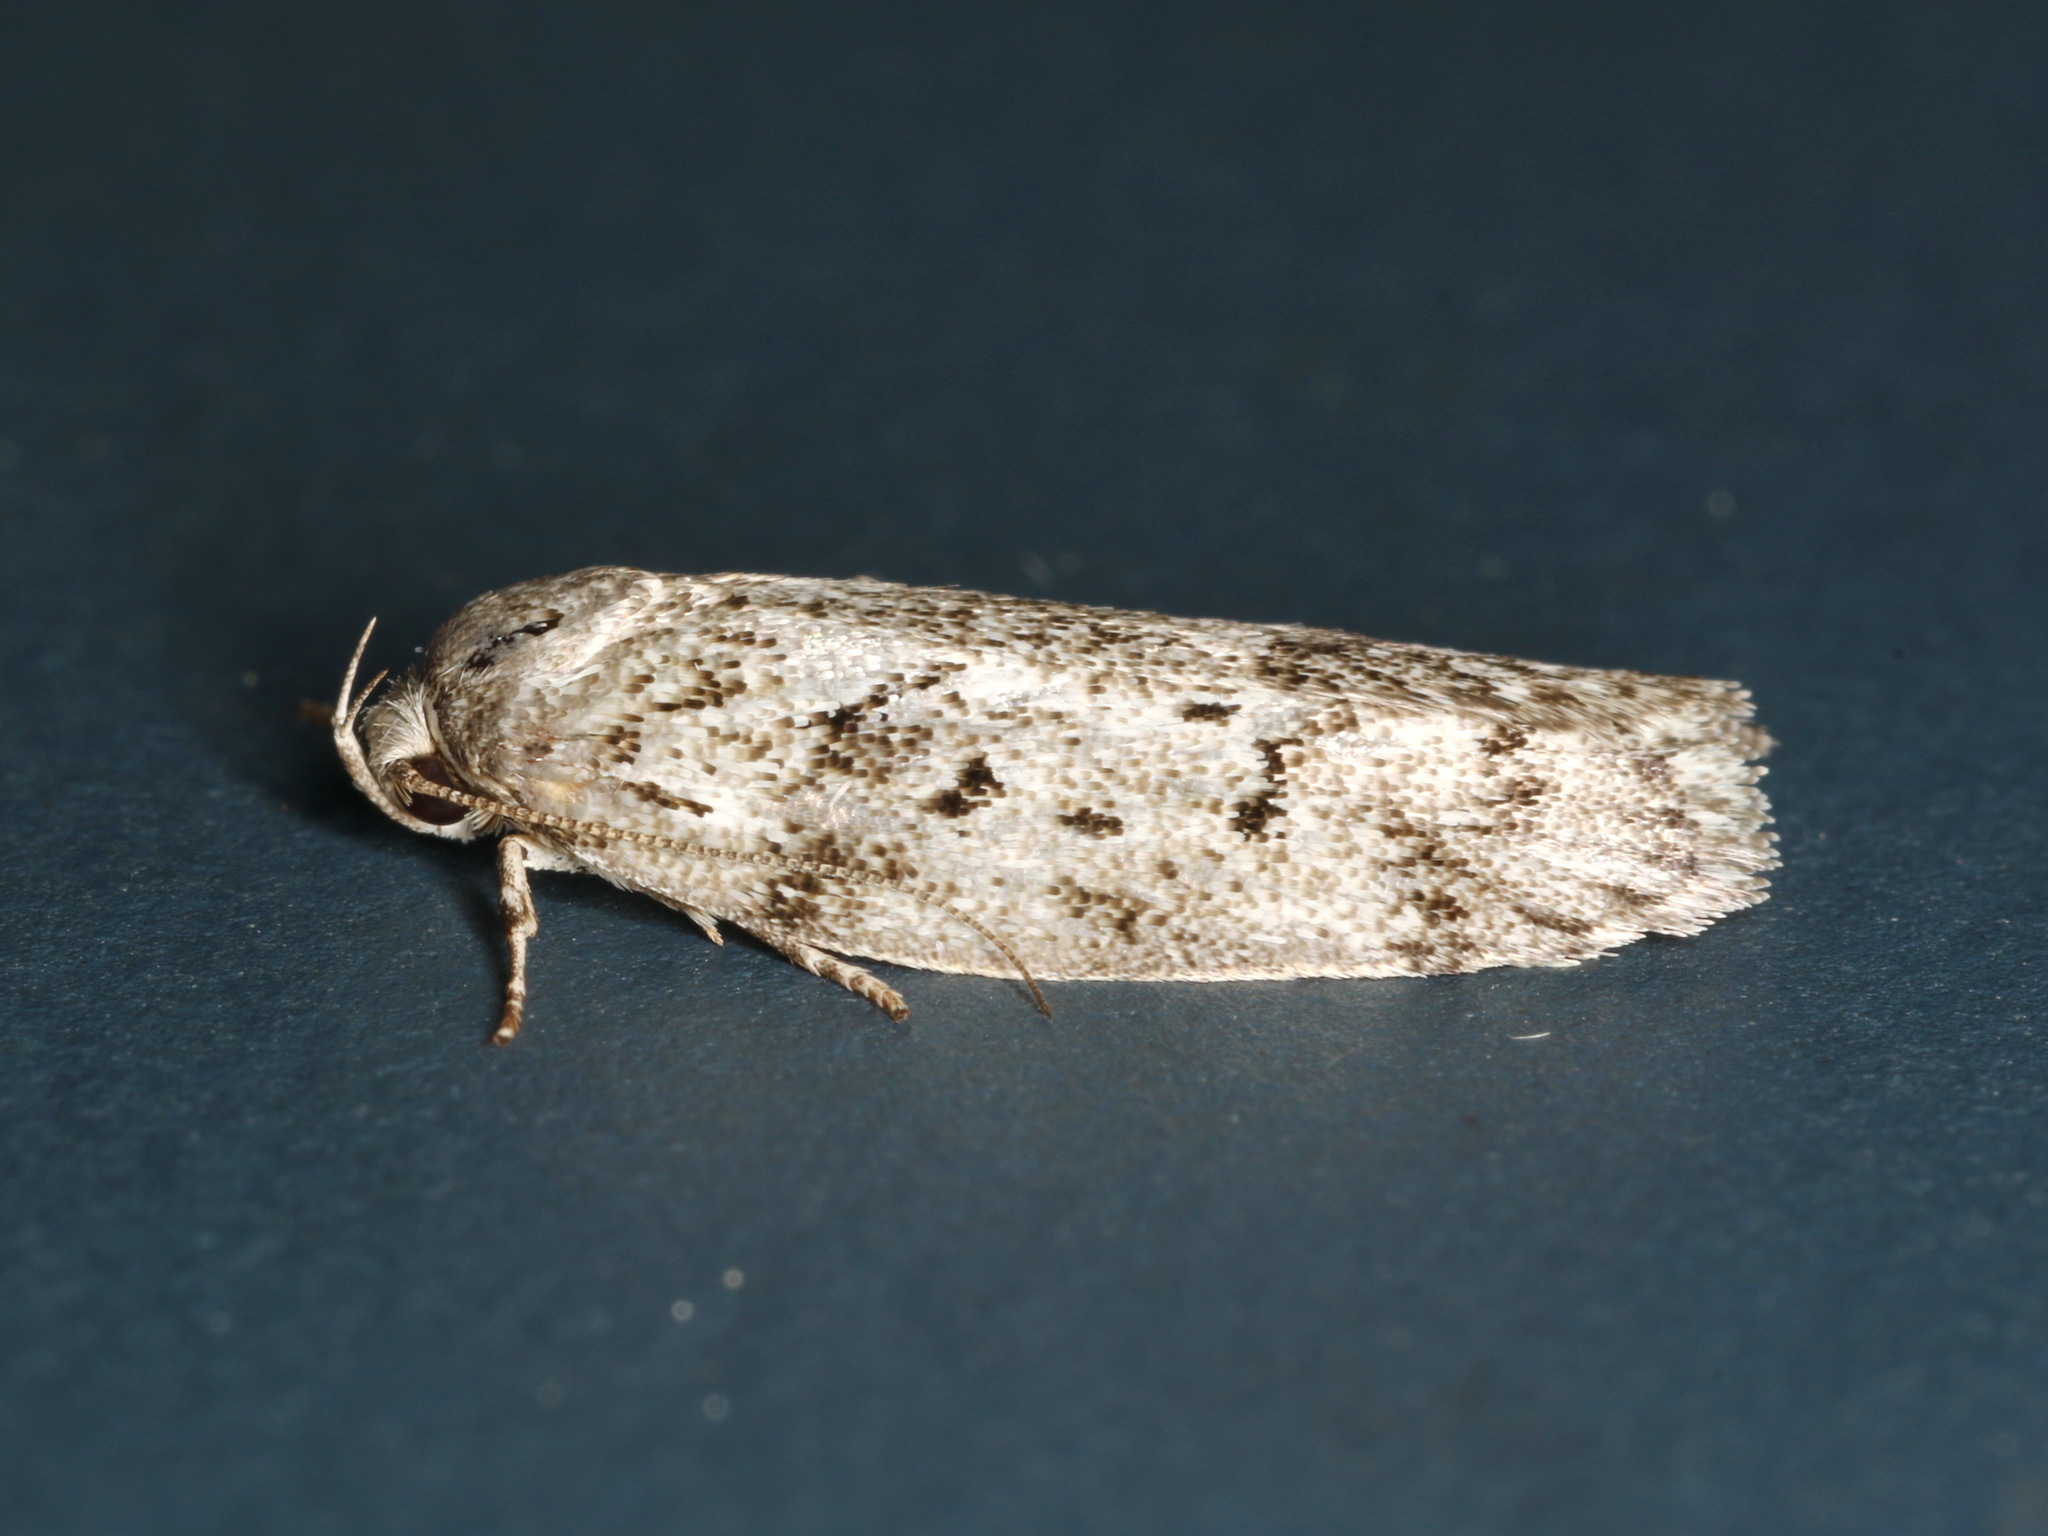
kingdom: Animalia
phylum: Arthropoda
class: Insecta
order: Lepidoptera
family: Oecophoridae
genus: Philobota
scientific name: Philobota philostaura
